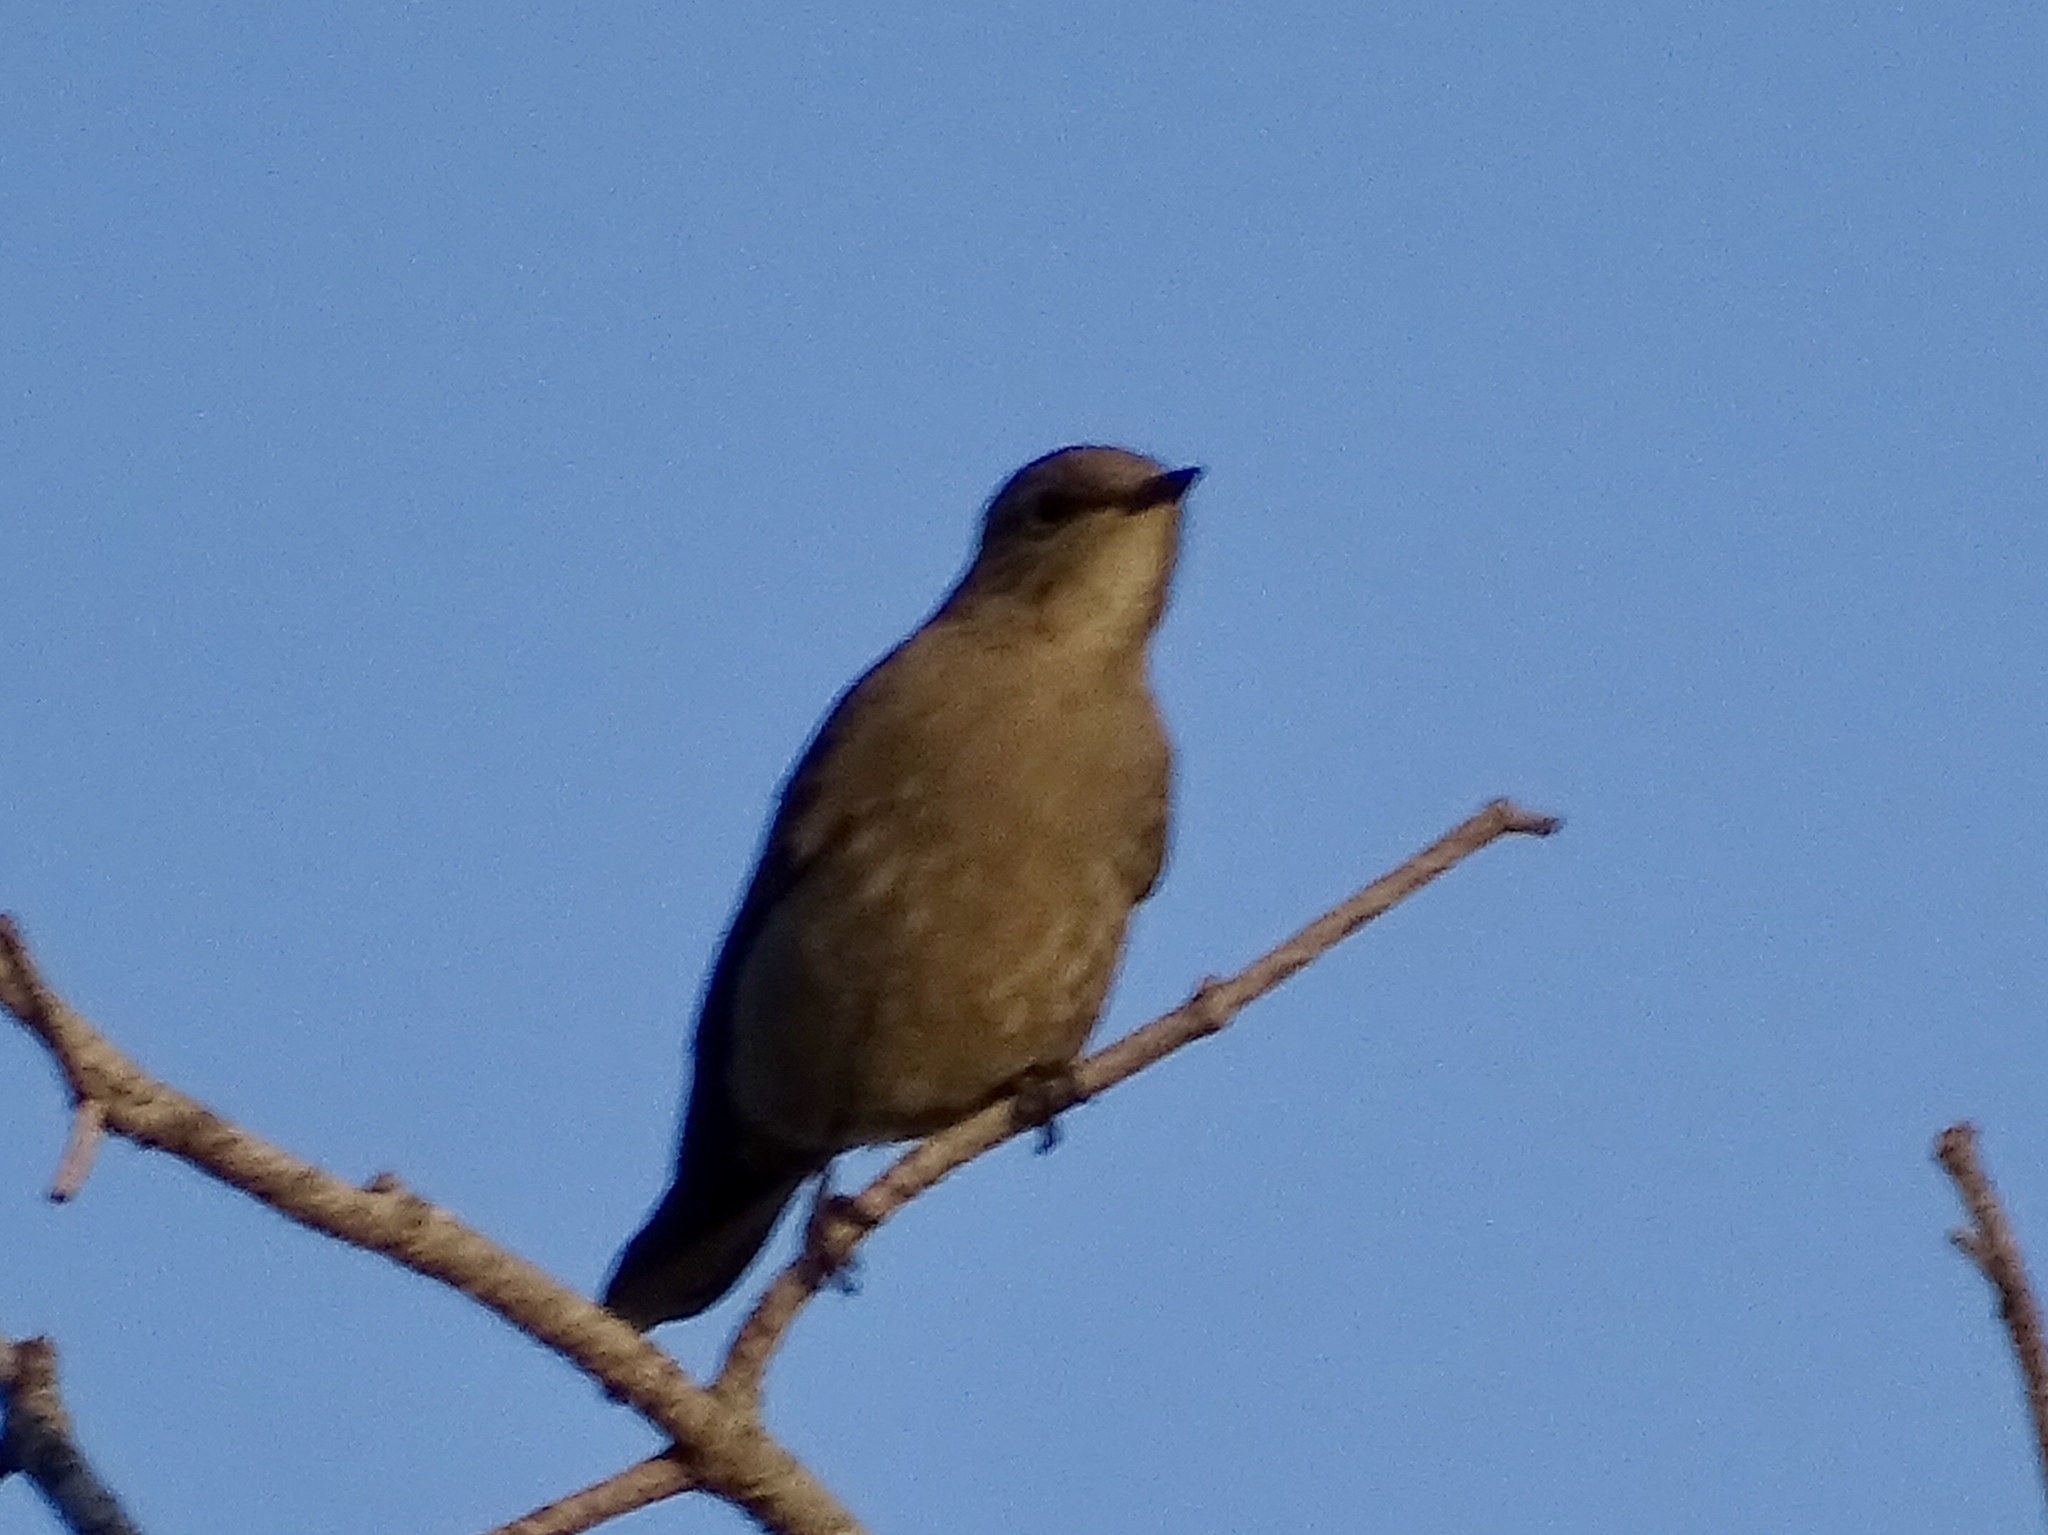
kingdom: Animalia
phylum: Chordata
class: Aves
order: Passeriformes
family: Turdidae
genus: Myadestes
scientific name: Myadestes townsendi
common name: Townsend's solitaire
